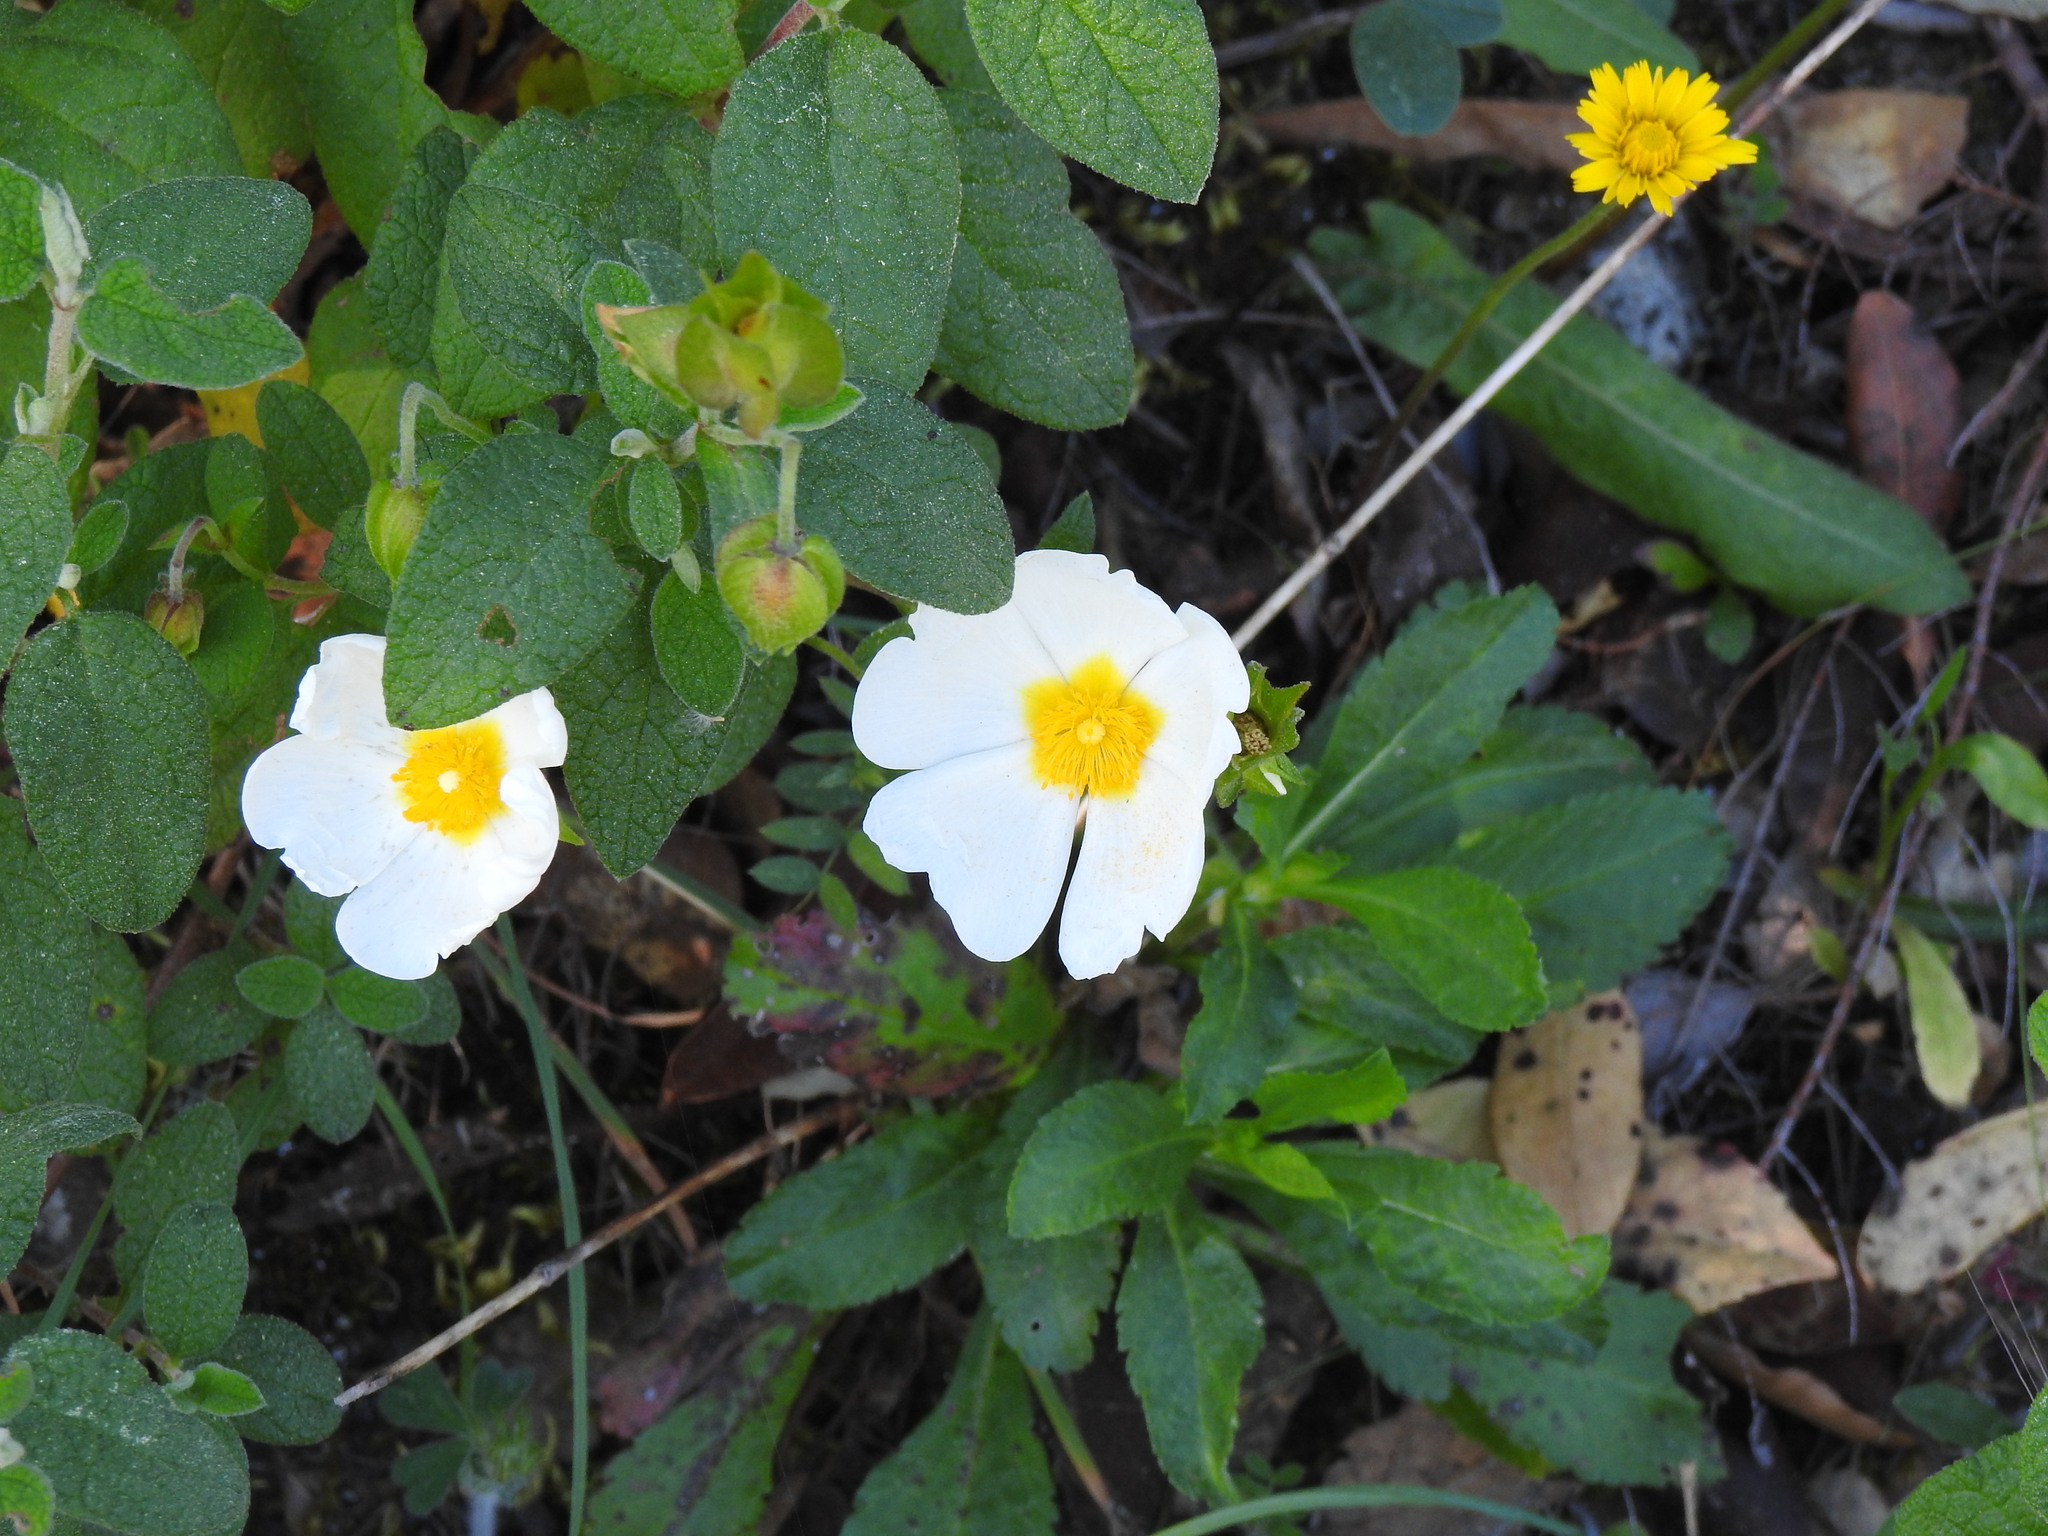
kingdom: Plantae
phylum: Tracheophyta
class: Magnoliopsida
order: Malvales
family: Cistaceae
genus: Cistus
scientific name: Cistus salviifolius
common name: Salvia cistus
